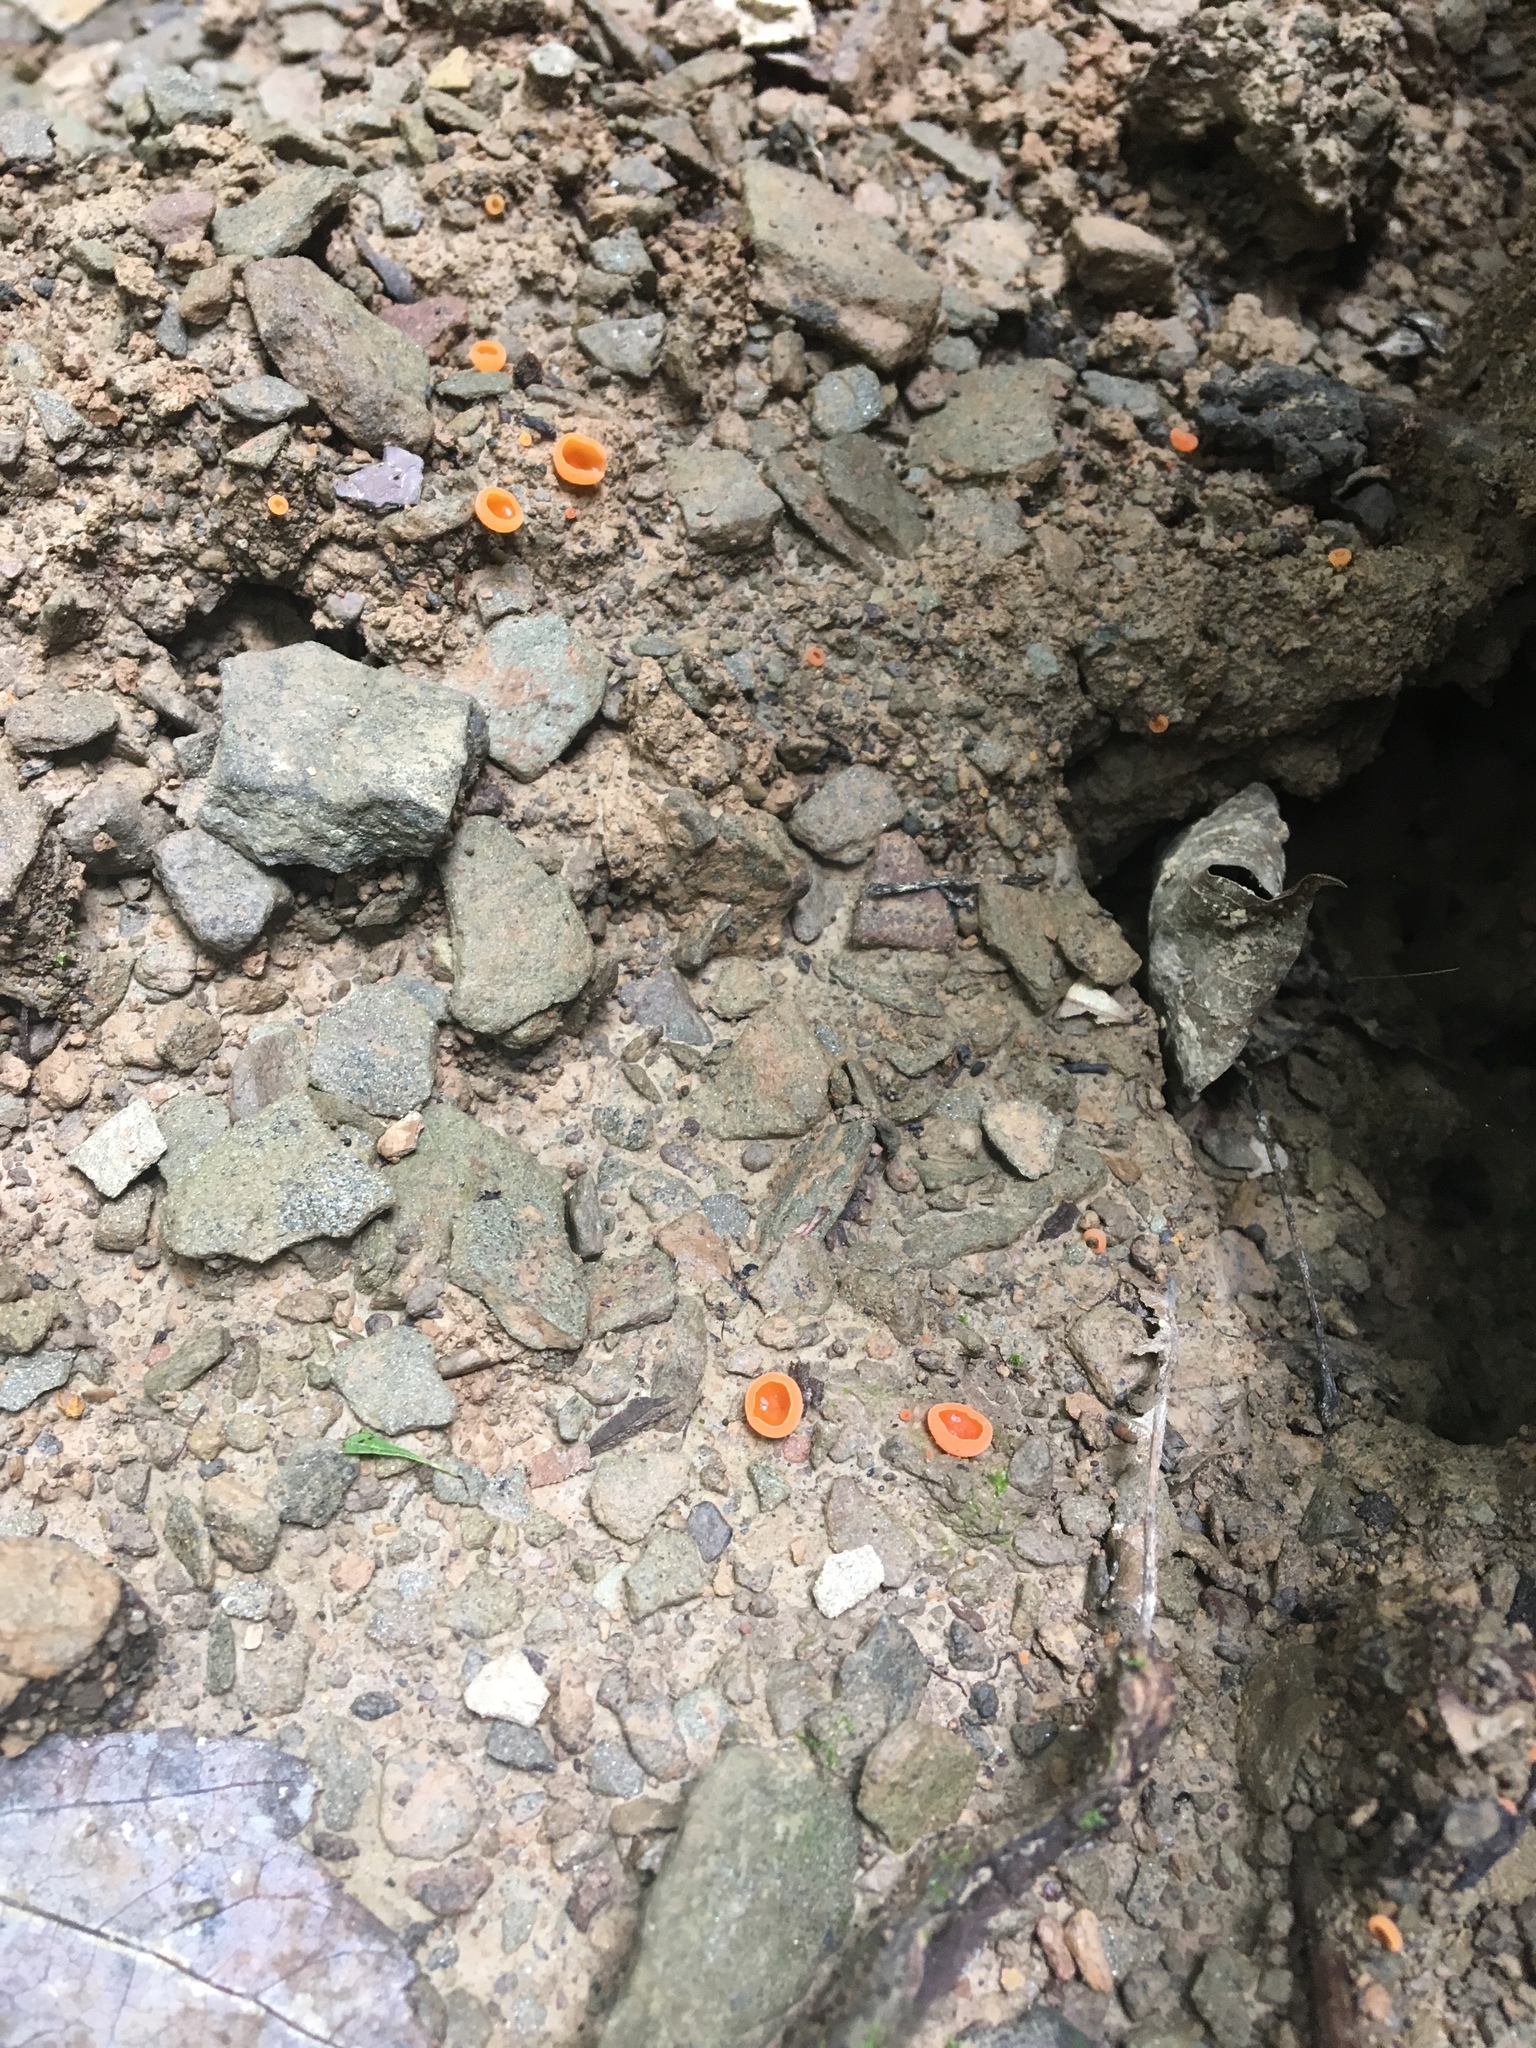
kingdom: Fungi
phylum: Ascomycota
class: Pezizomycetes
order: Pezizales
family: Pyronemataceae
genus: Aleuria
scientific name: Aleuria aurantia
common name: Orange peel fungus
